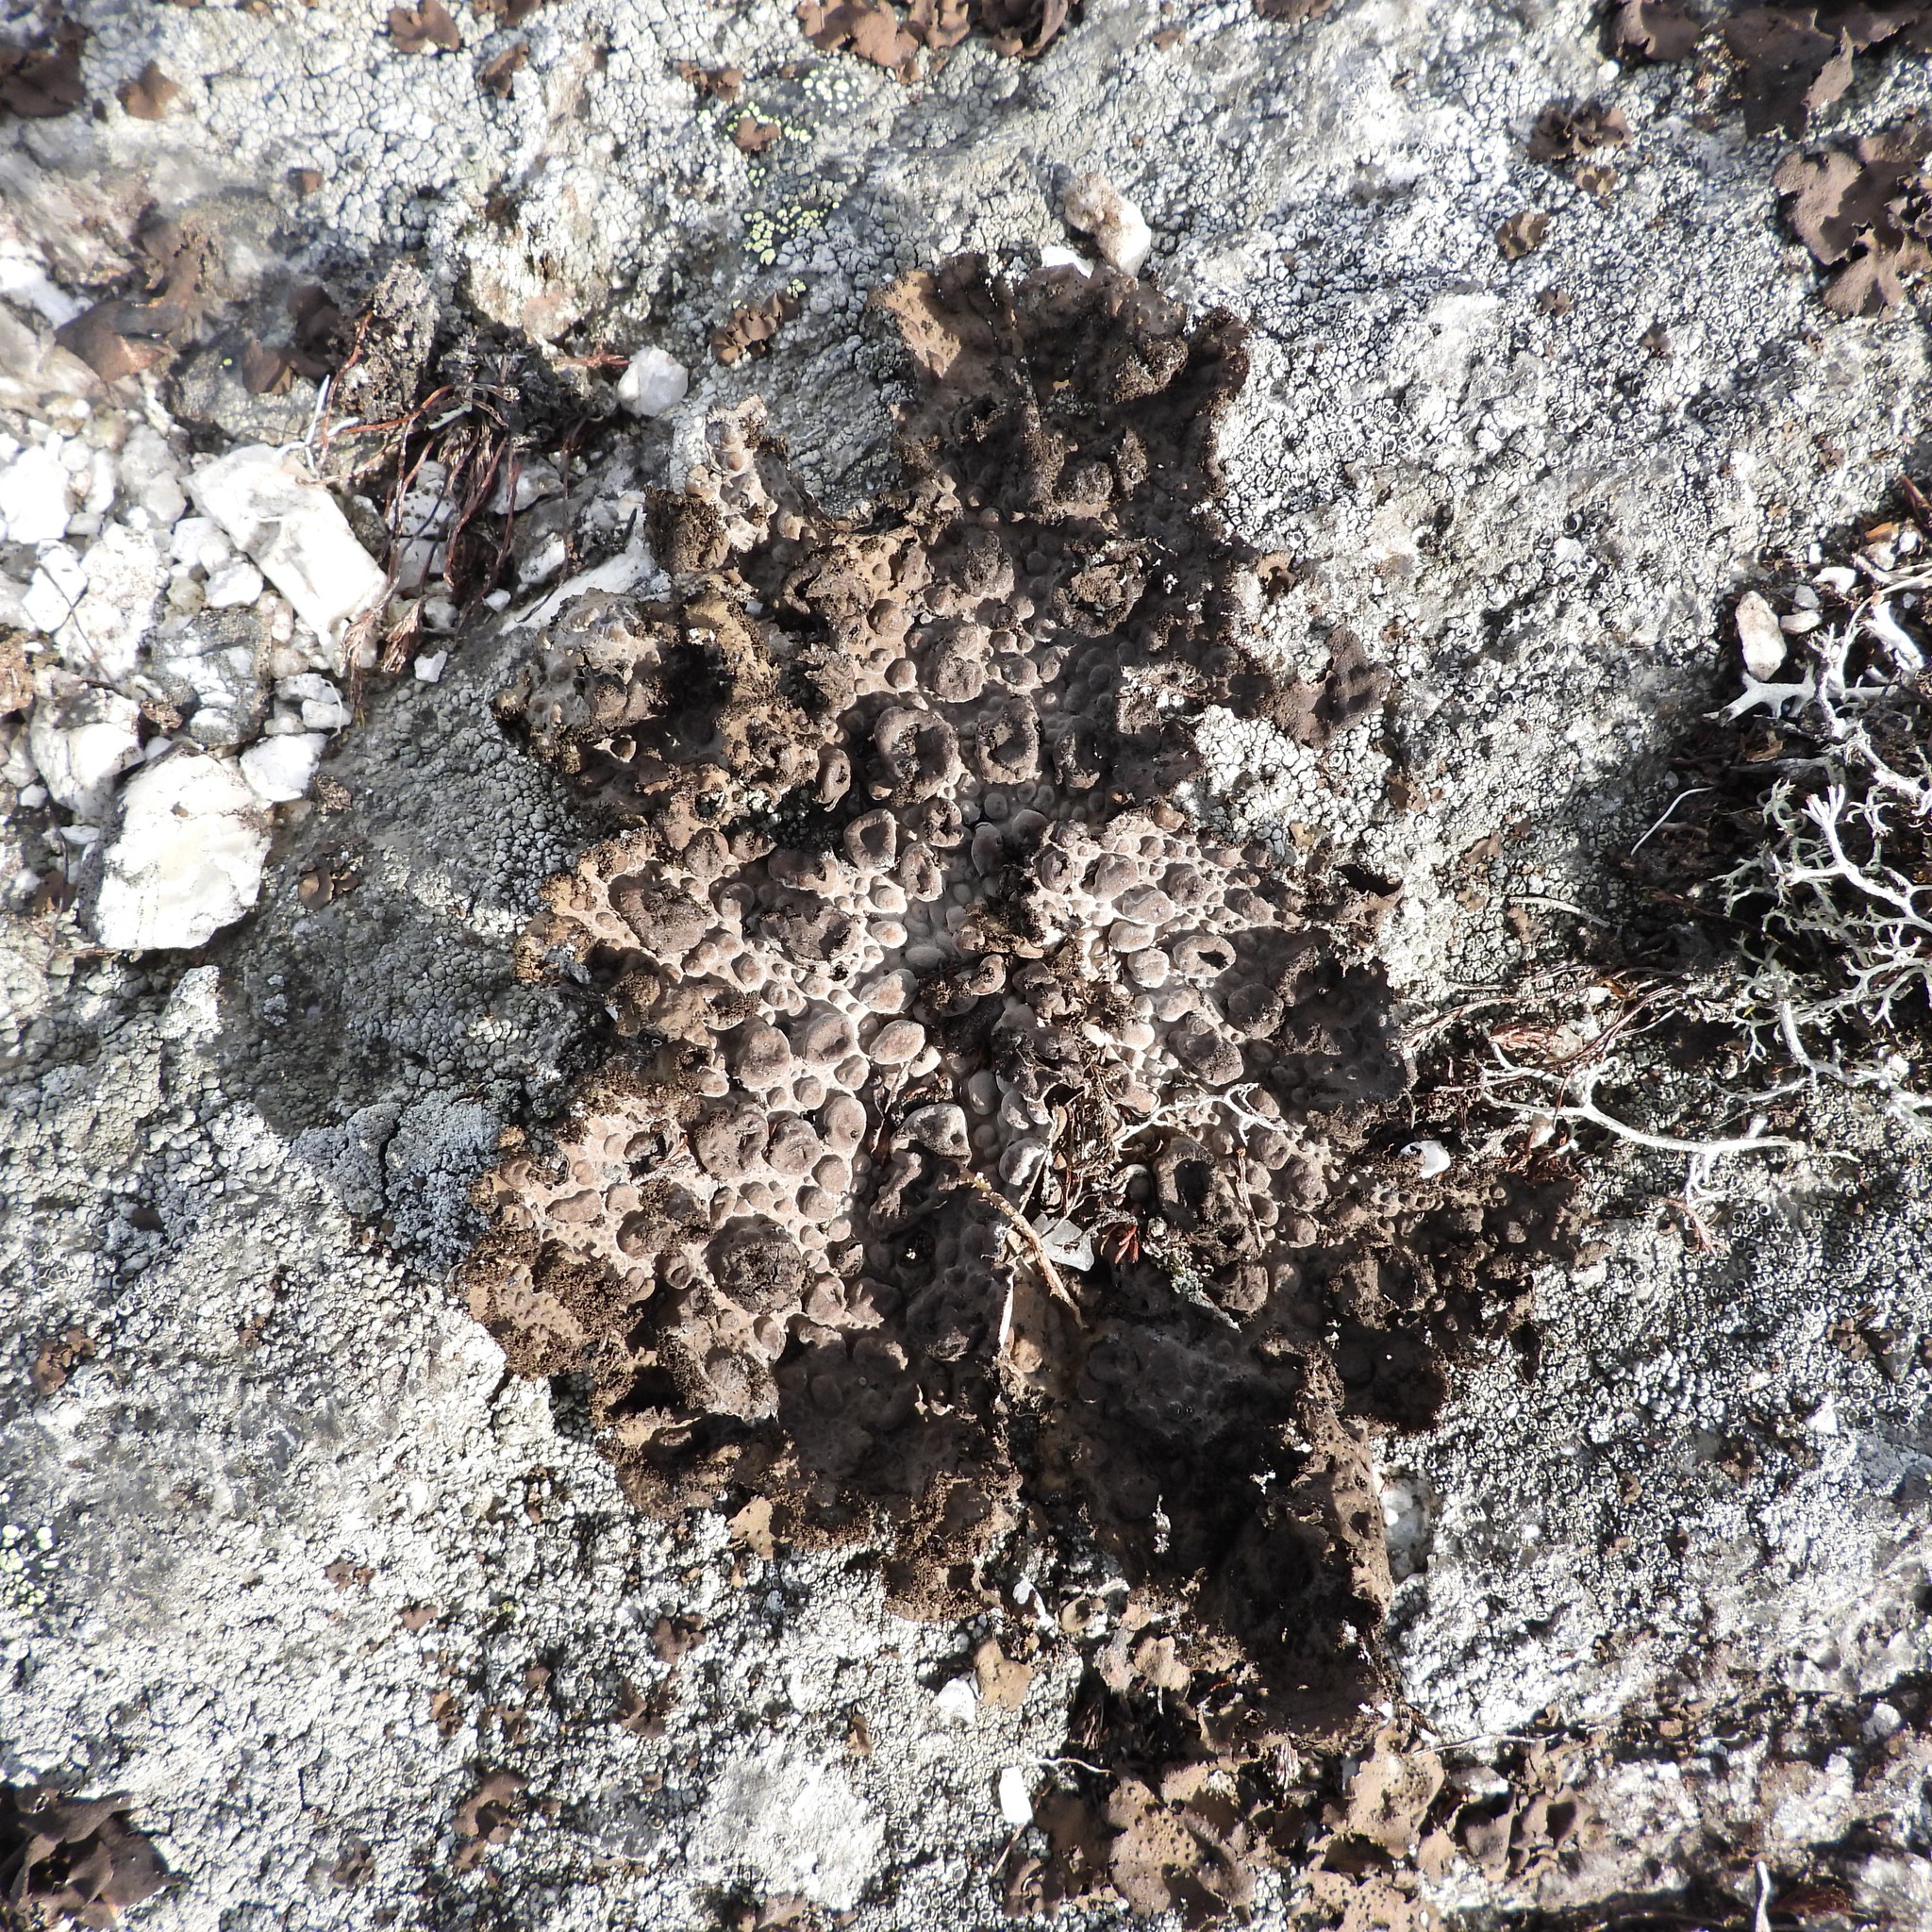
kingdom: Fungi
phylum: Ascomycota
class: Lecanoromycetes
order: Umbilicariales
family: Umbilicariaceae
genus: Lasallia
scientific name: Lasallia pustulata
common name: Blistered toadskin lichen
